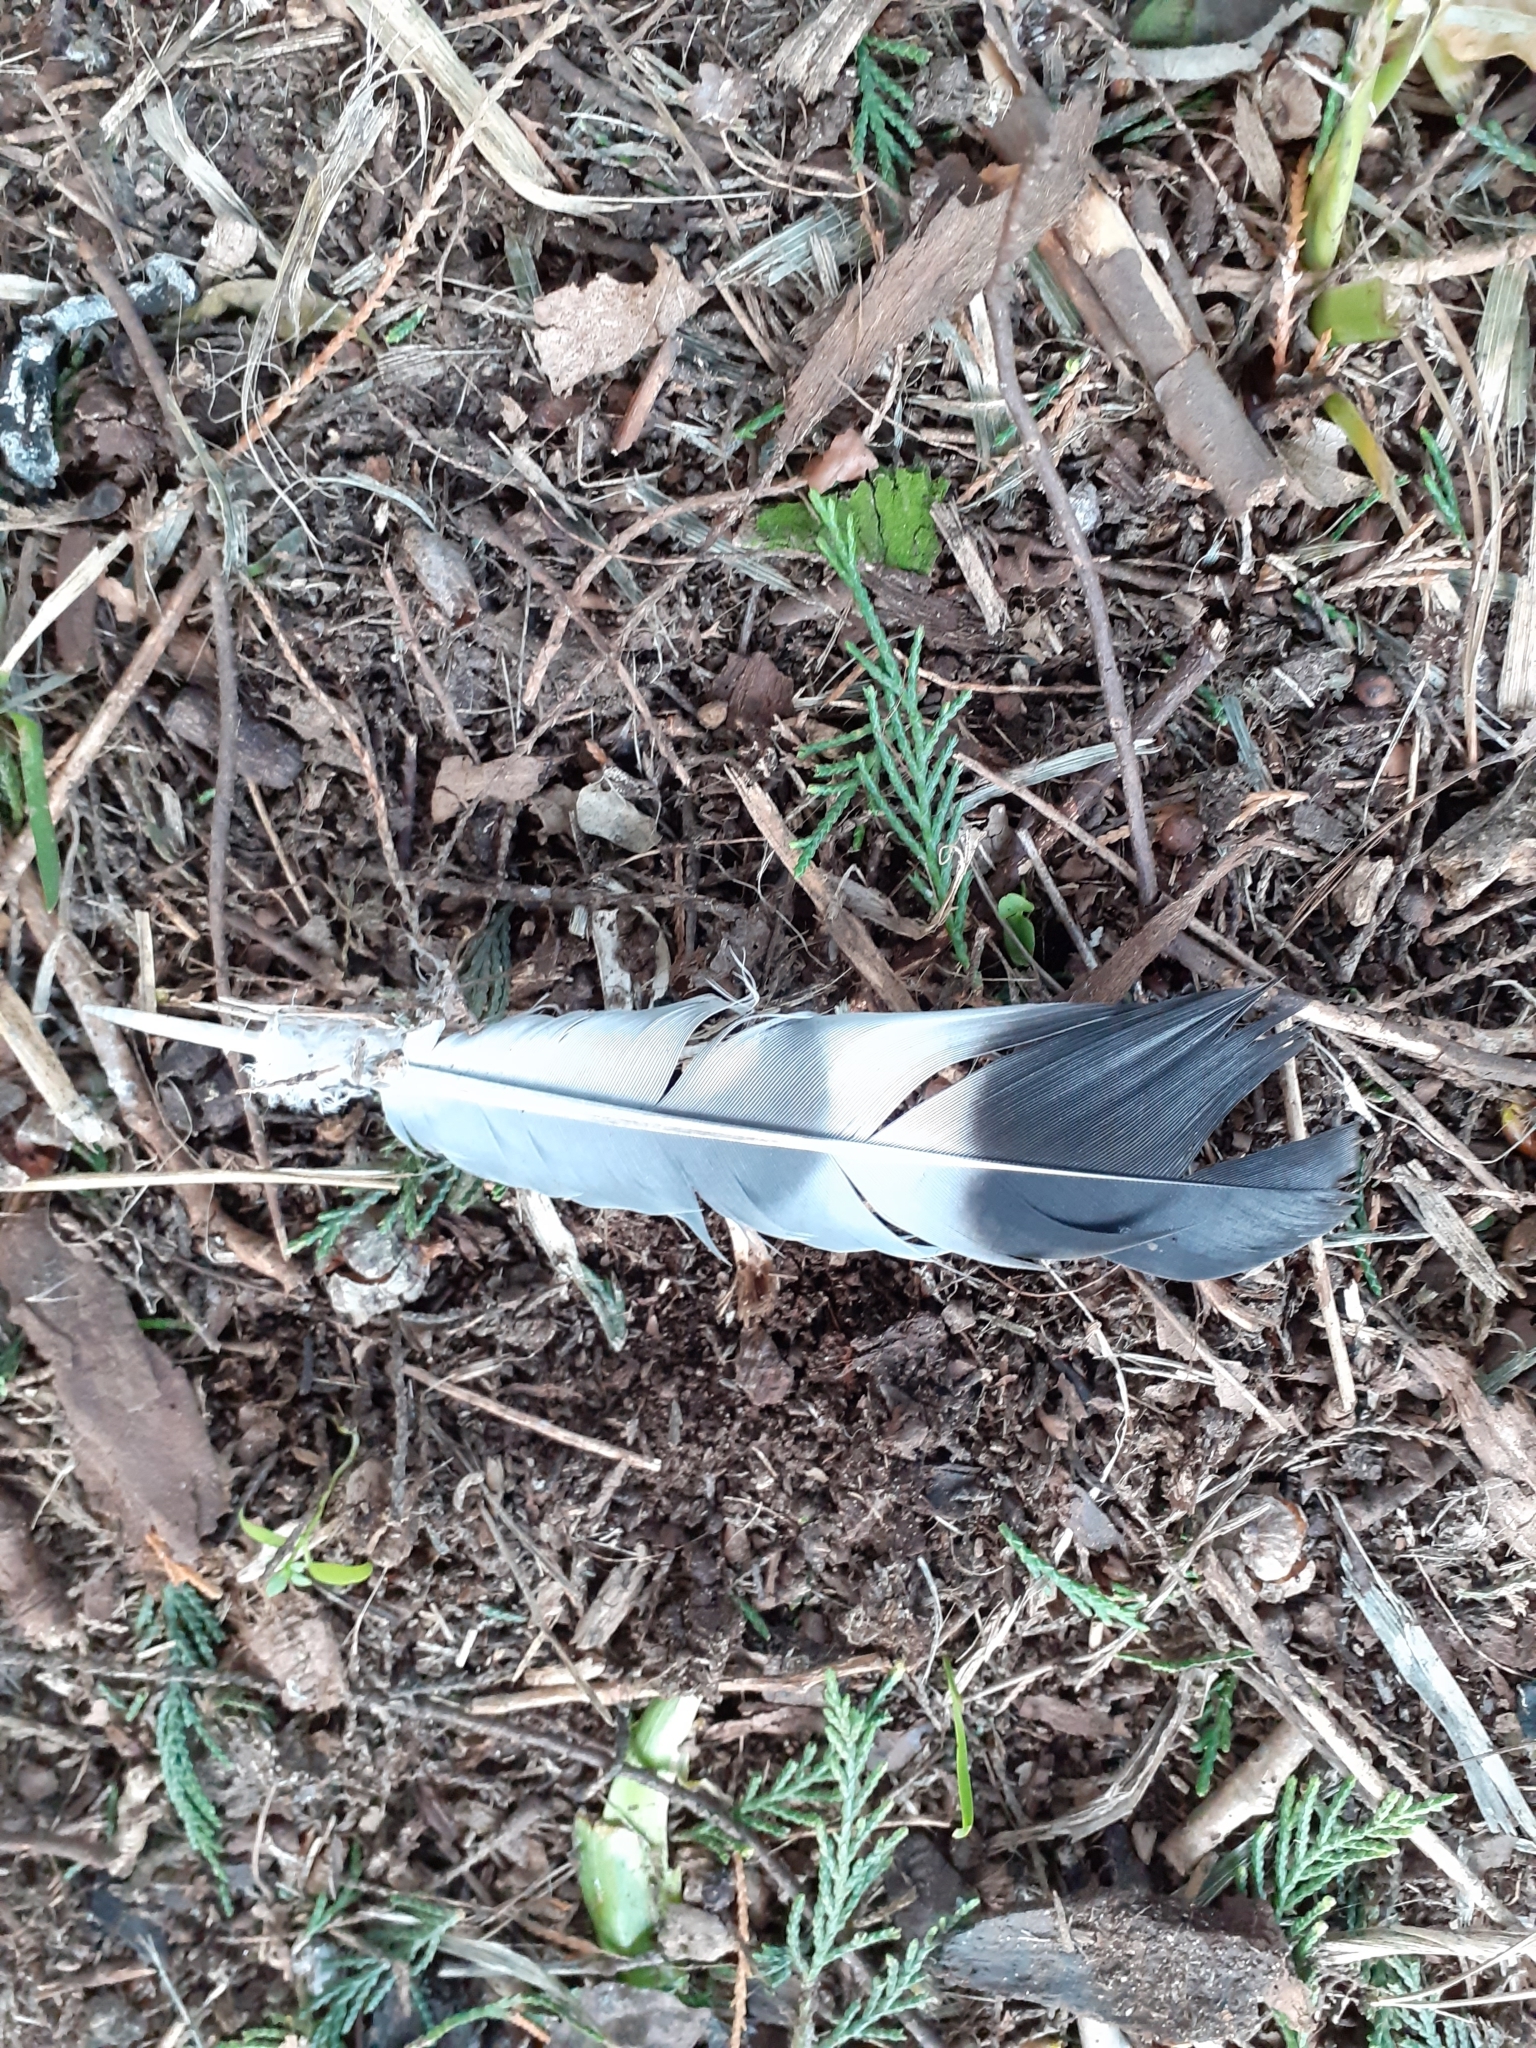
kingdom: Animalia
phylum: Chordata
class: Aves
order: Columbiformes
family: Columbidae
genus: Columba
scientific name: Columba palumbus
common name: Common wood pigeon
